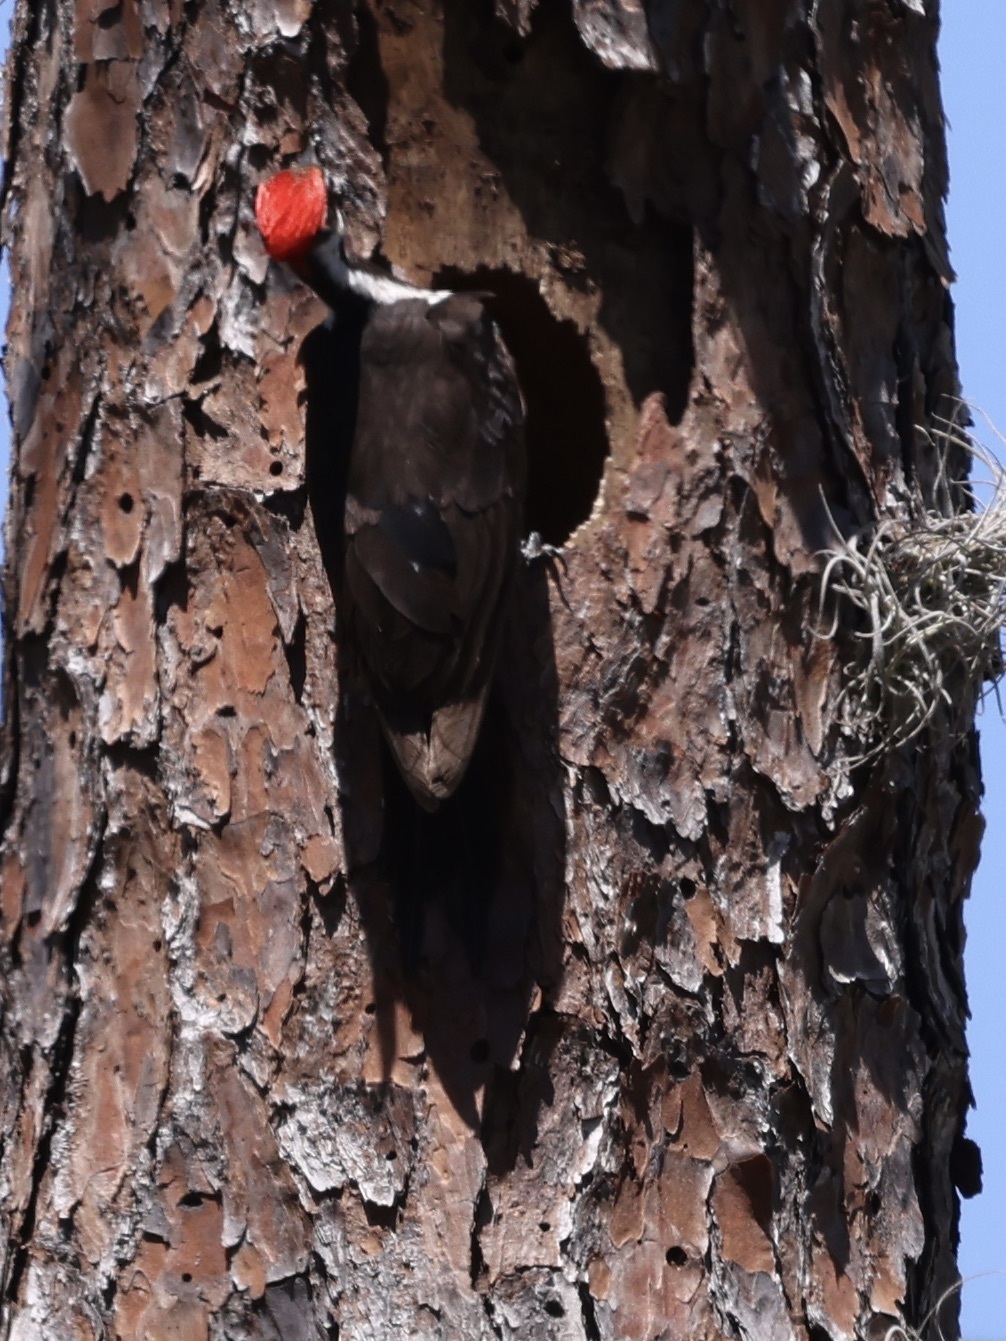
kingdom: Animalia
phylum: Chordata
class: Aves
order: Piciformes
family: Picidae
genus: Dryocopus
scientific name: Dryocopus pileatus
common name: Pileated woodpecker
